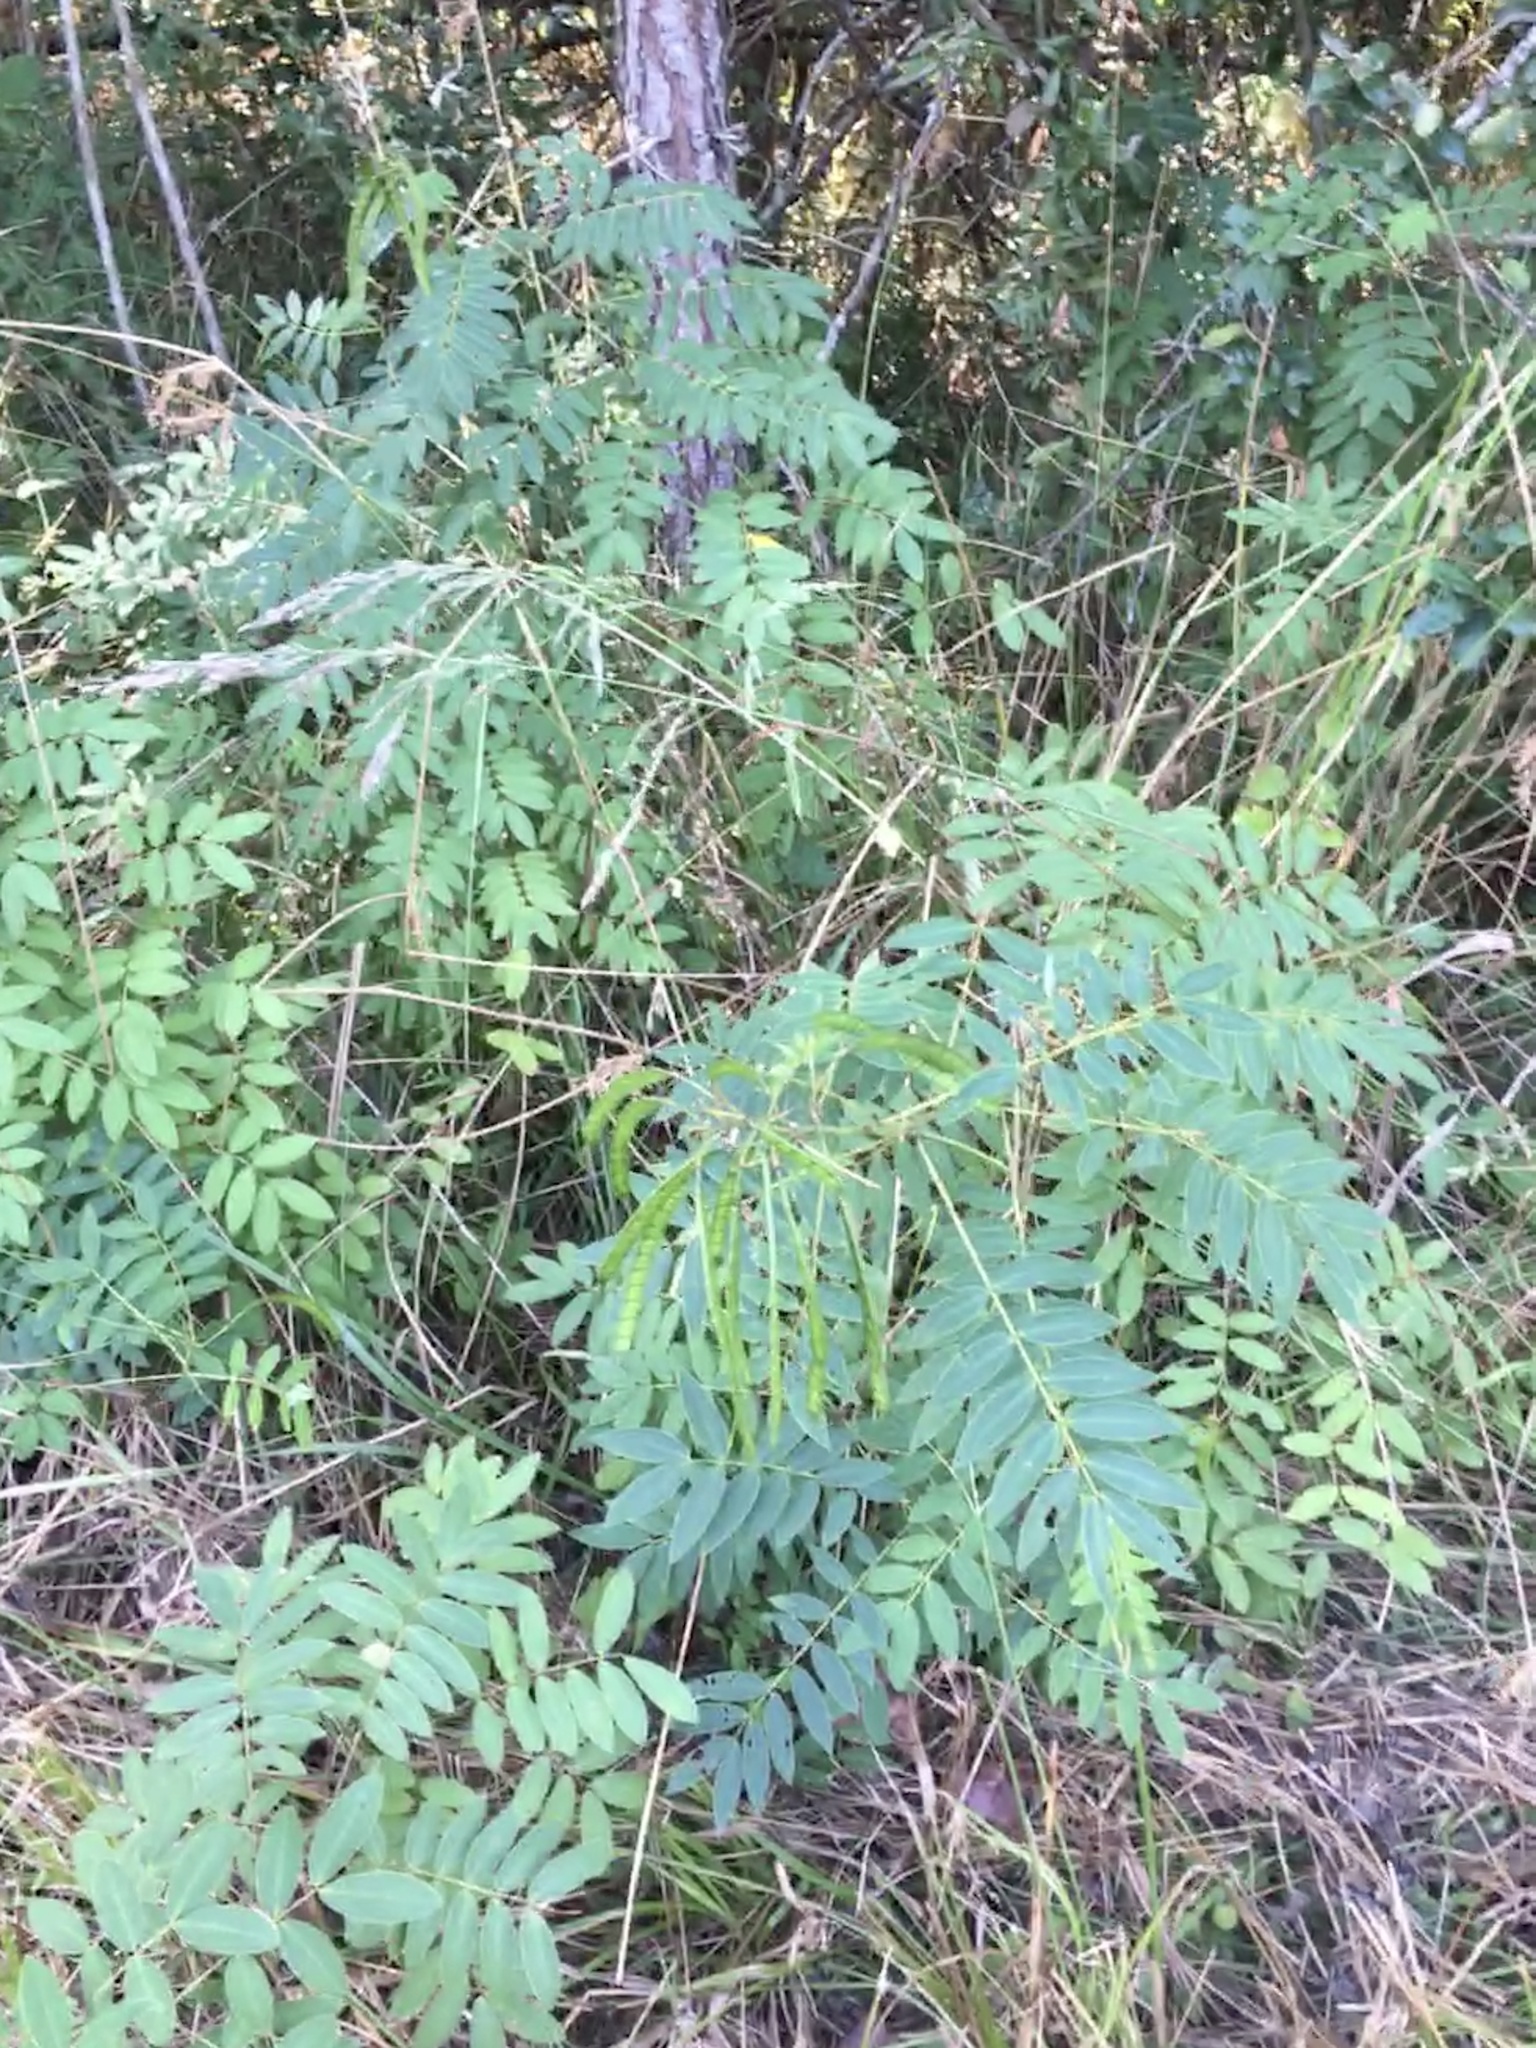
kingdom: Plantae
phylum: Tracheophyta
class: Magnoliopsida
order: Fabales
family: Fabaceae
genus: Senna
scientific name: Senna hebecarpa
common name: Wild senna
